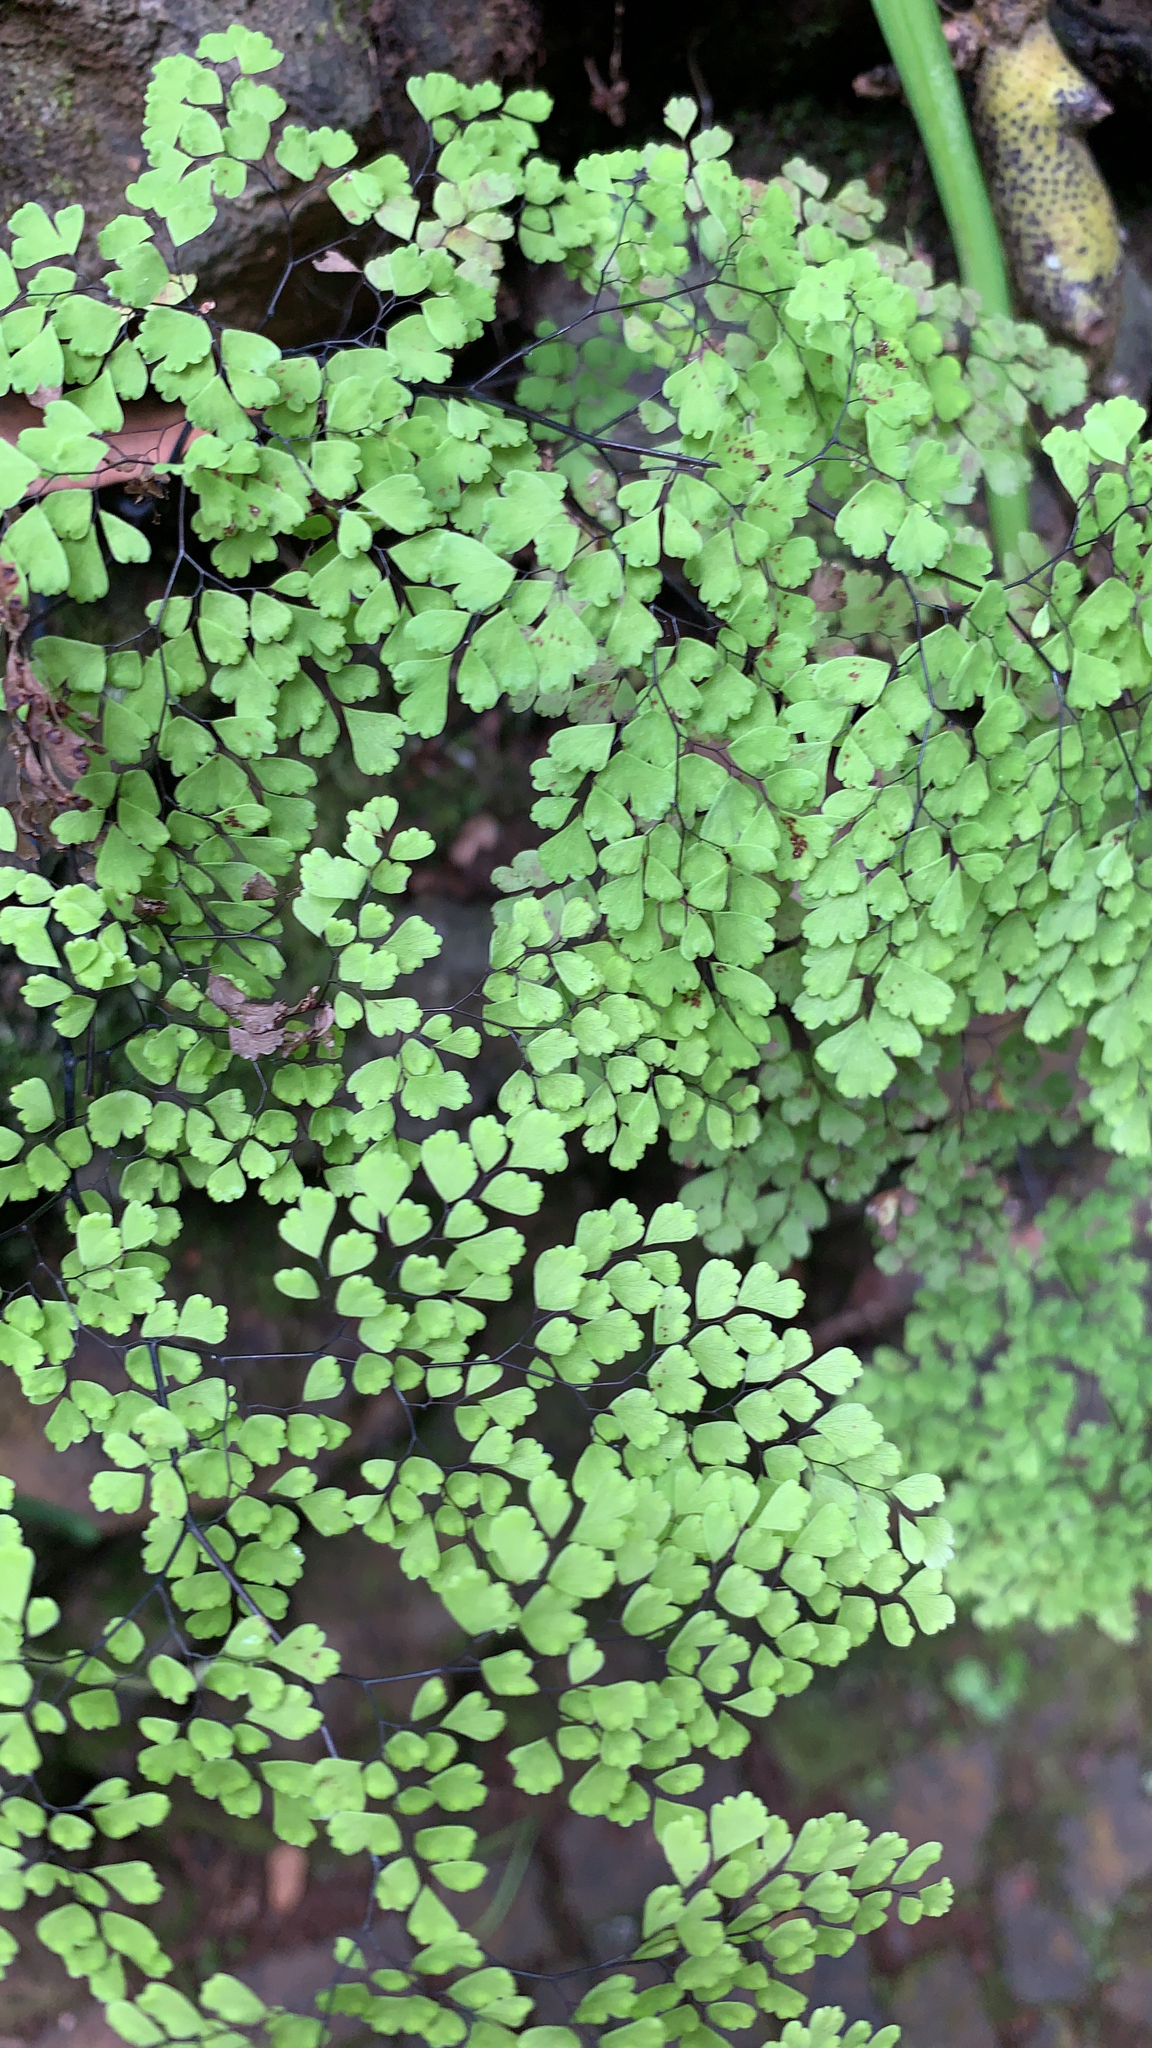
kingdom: Plantae
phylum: Tracheophyta
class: Polypodiopsida
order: Polypodiales
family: Pteridaceae
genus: Adiantum
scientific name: Adiantum raddianum
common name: Delta maidenhair fern
